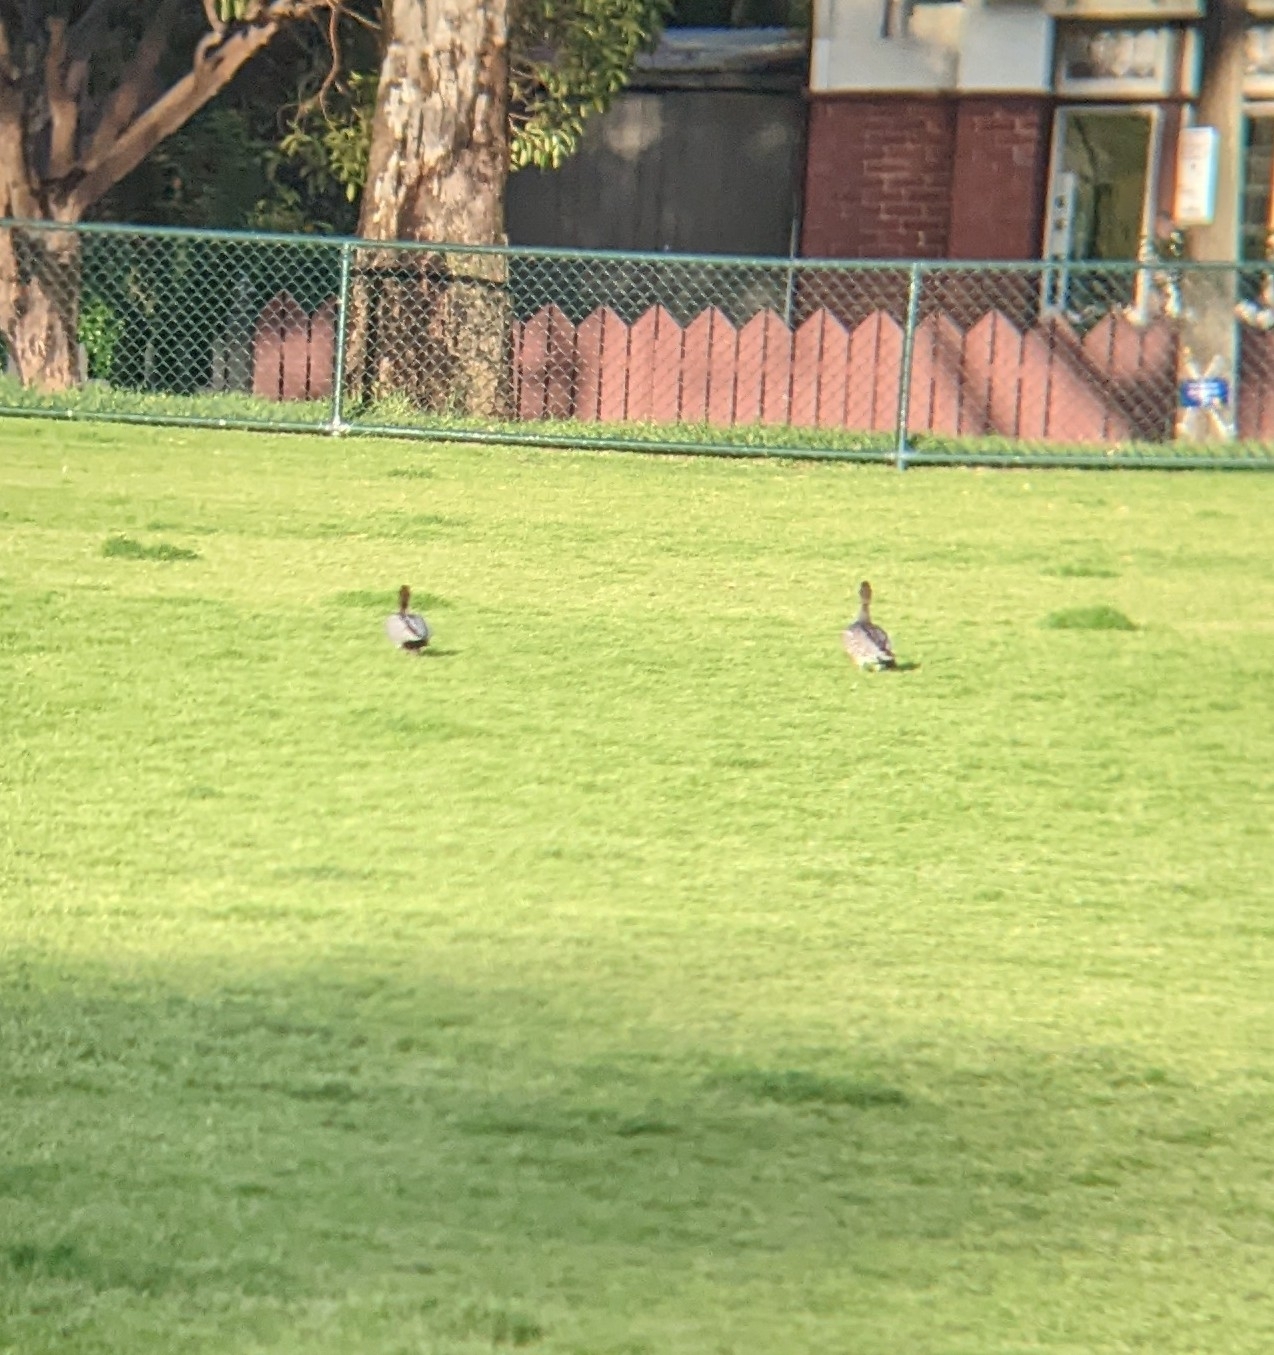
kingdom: Animalia
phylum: Chordata
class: Aves
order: Anseriformes
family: Anatidae
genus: Chenonetta
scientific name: Chenonetta jubata
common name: Maned duck
